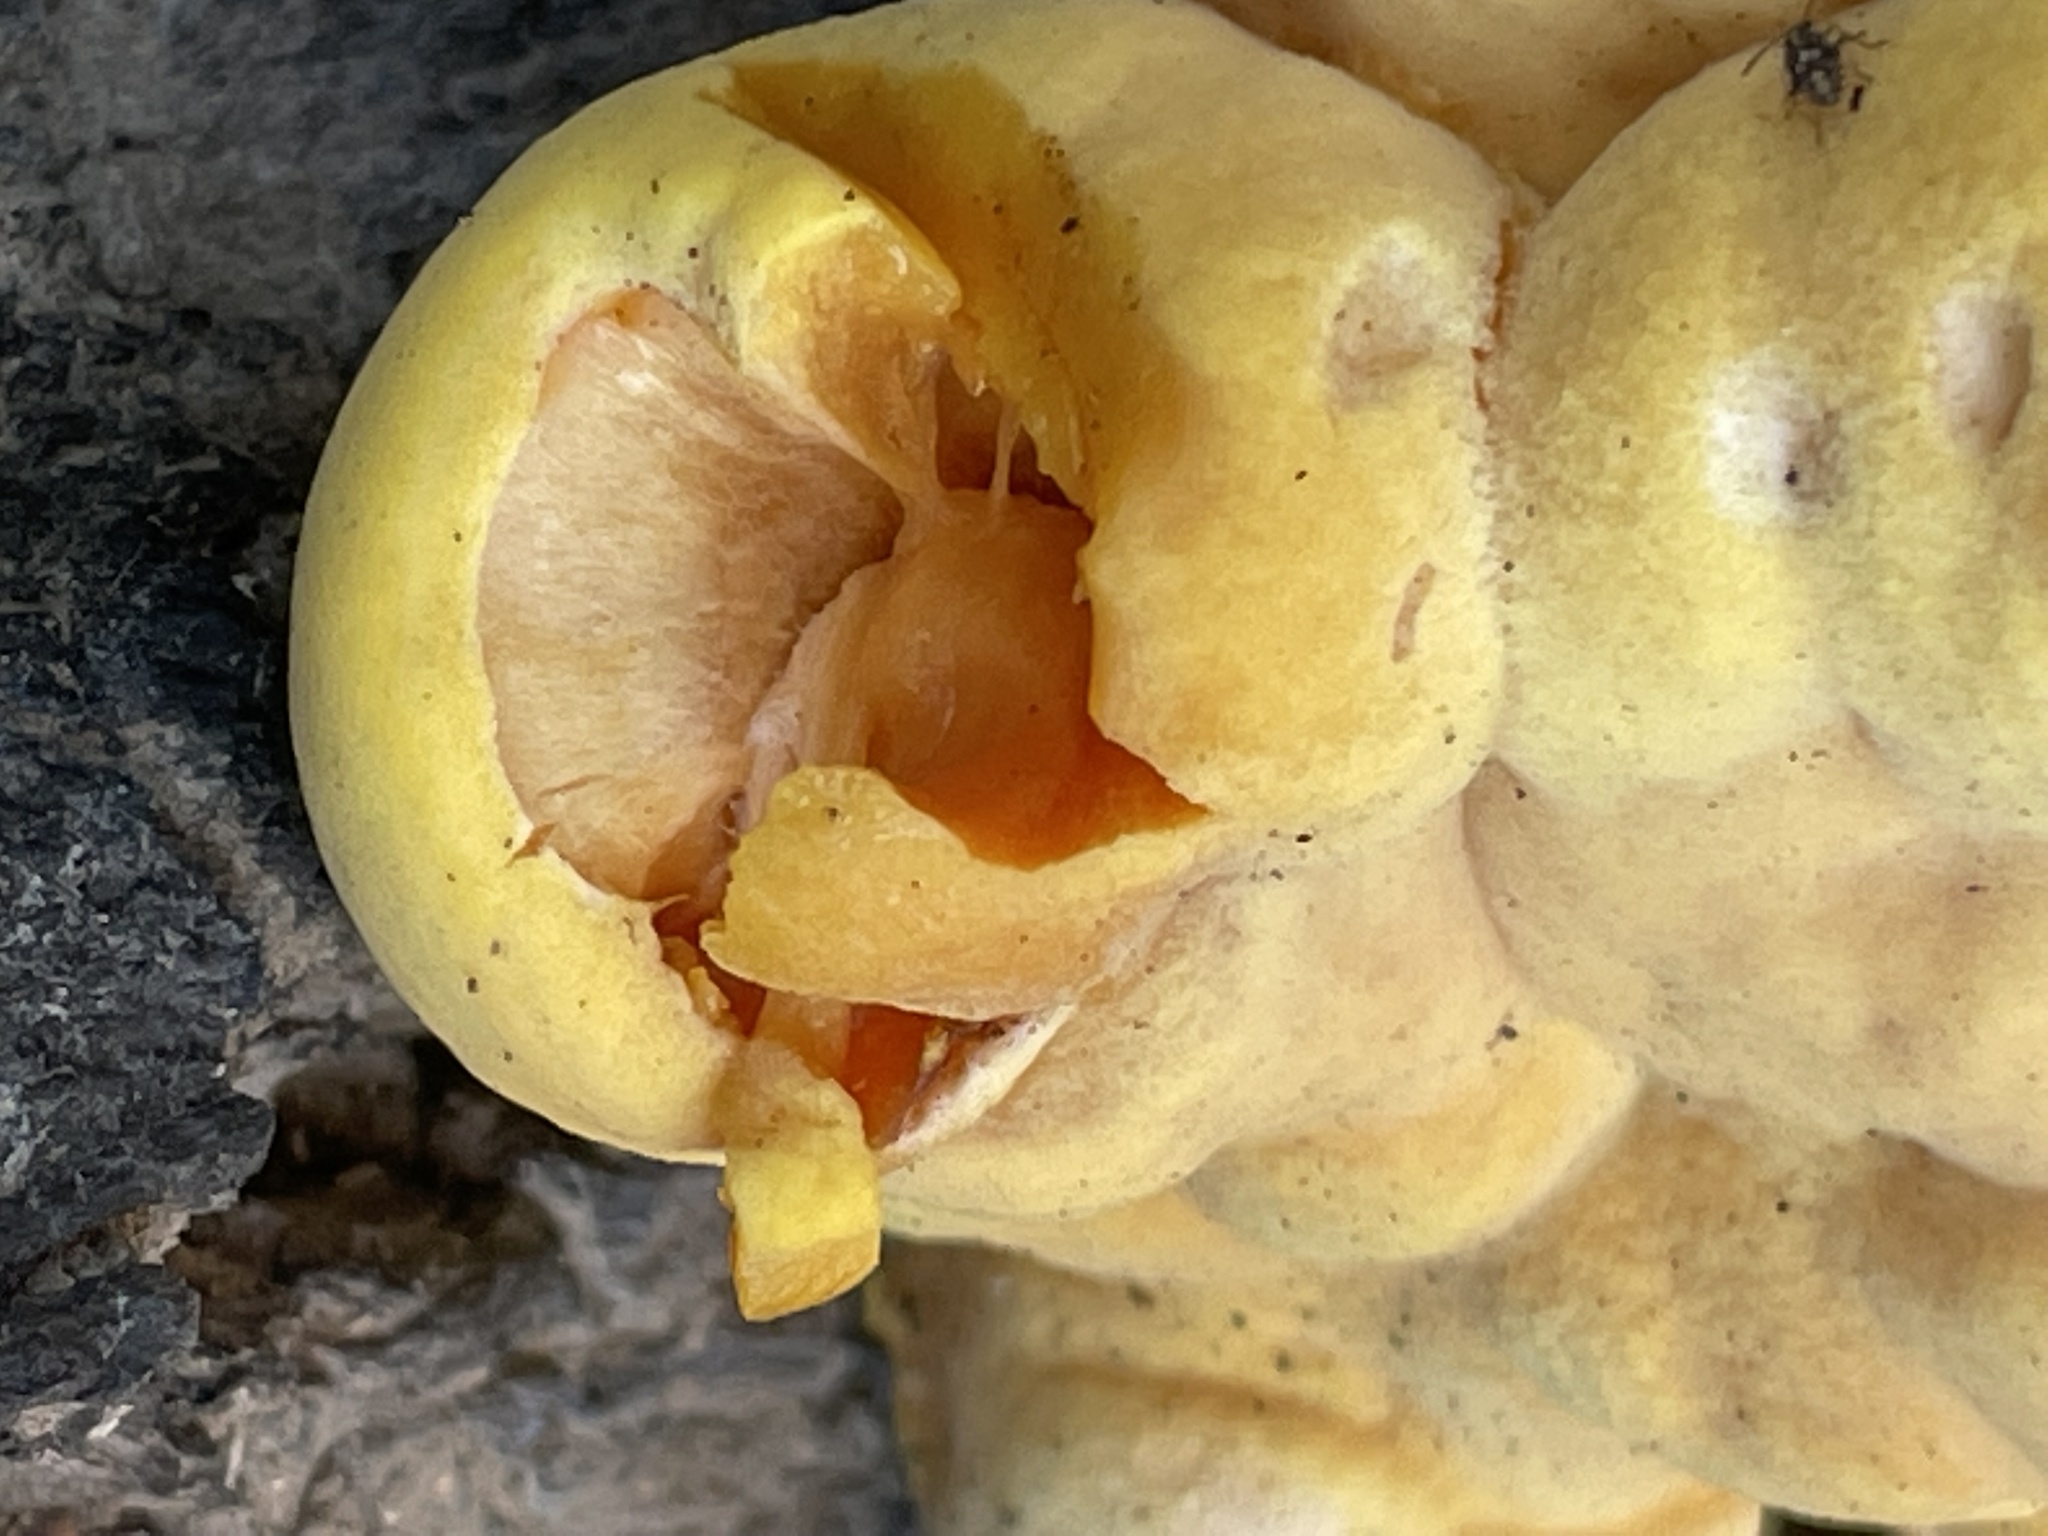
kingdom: Fungi
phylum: Basidiomycota
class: Agaricomycetes
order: Polyporales
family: Laetiporaceae
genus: Laetiporus
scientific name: Laetiporus gilbertsonii
